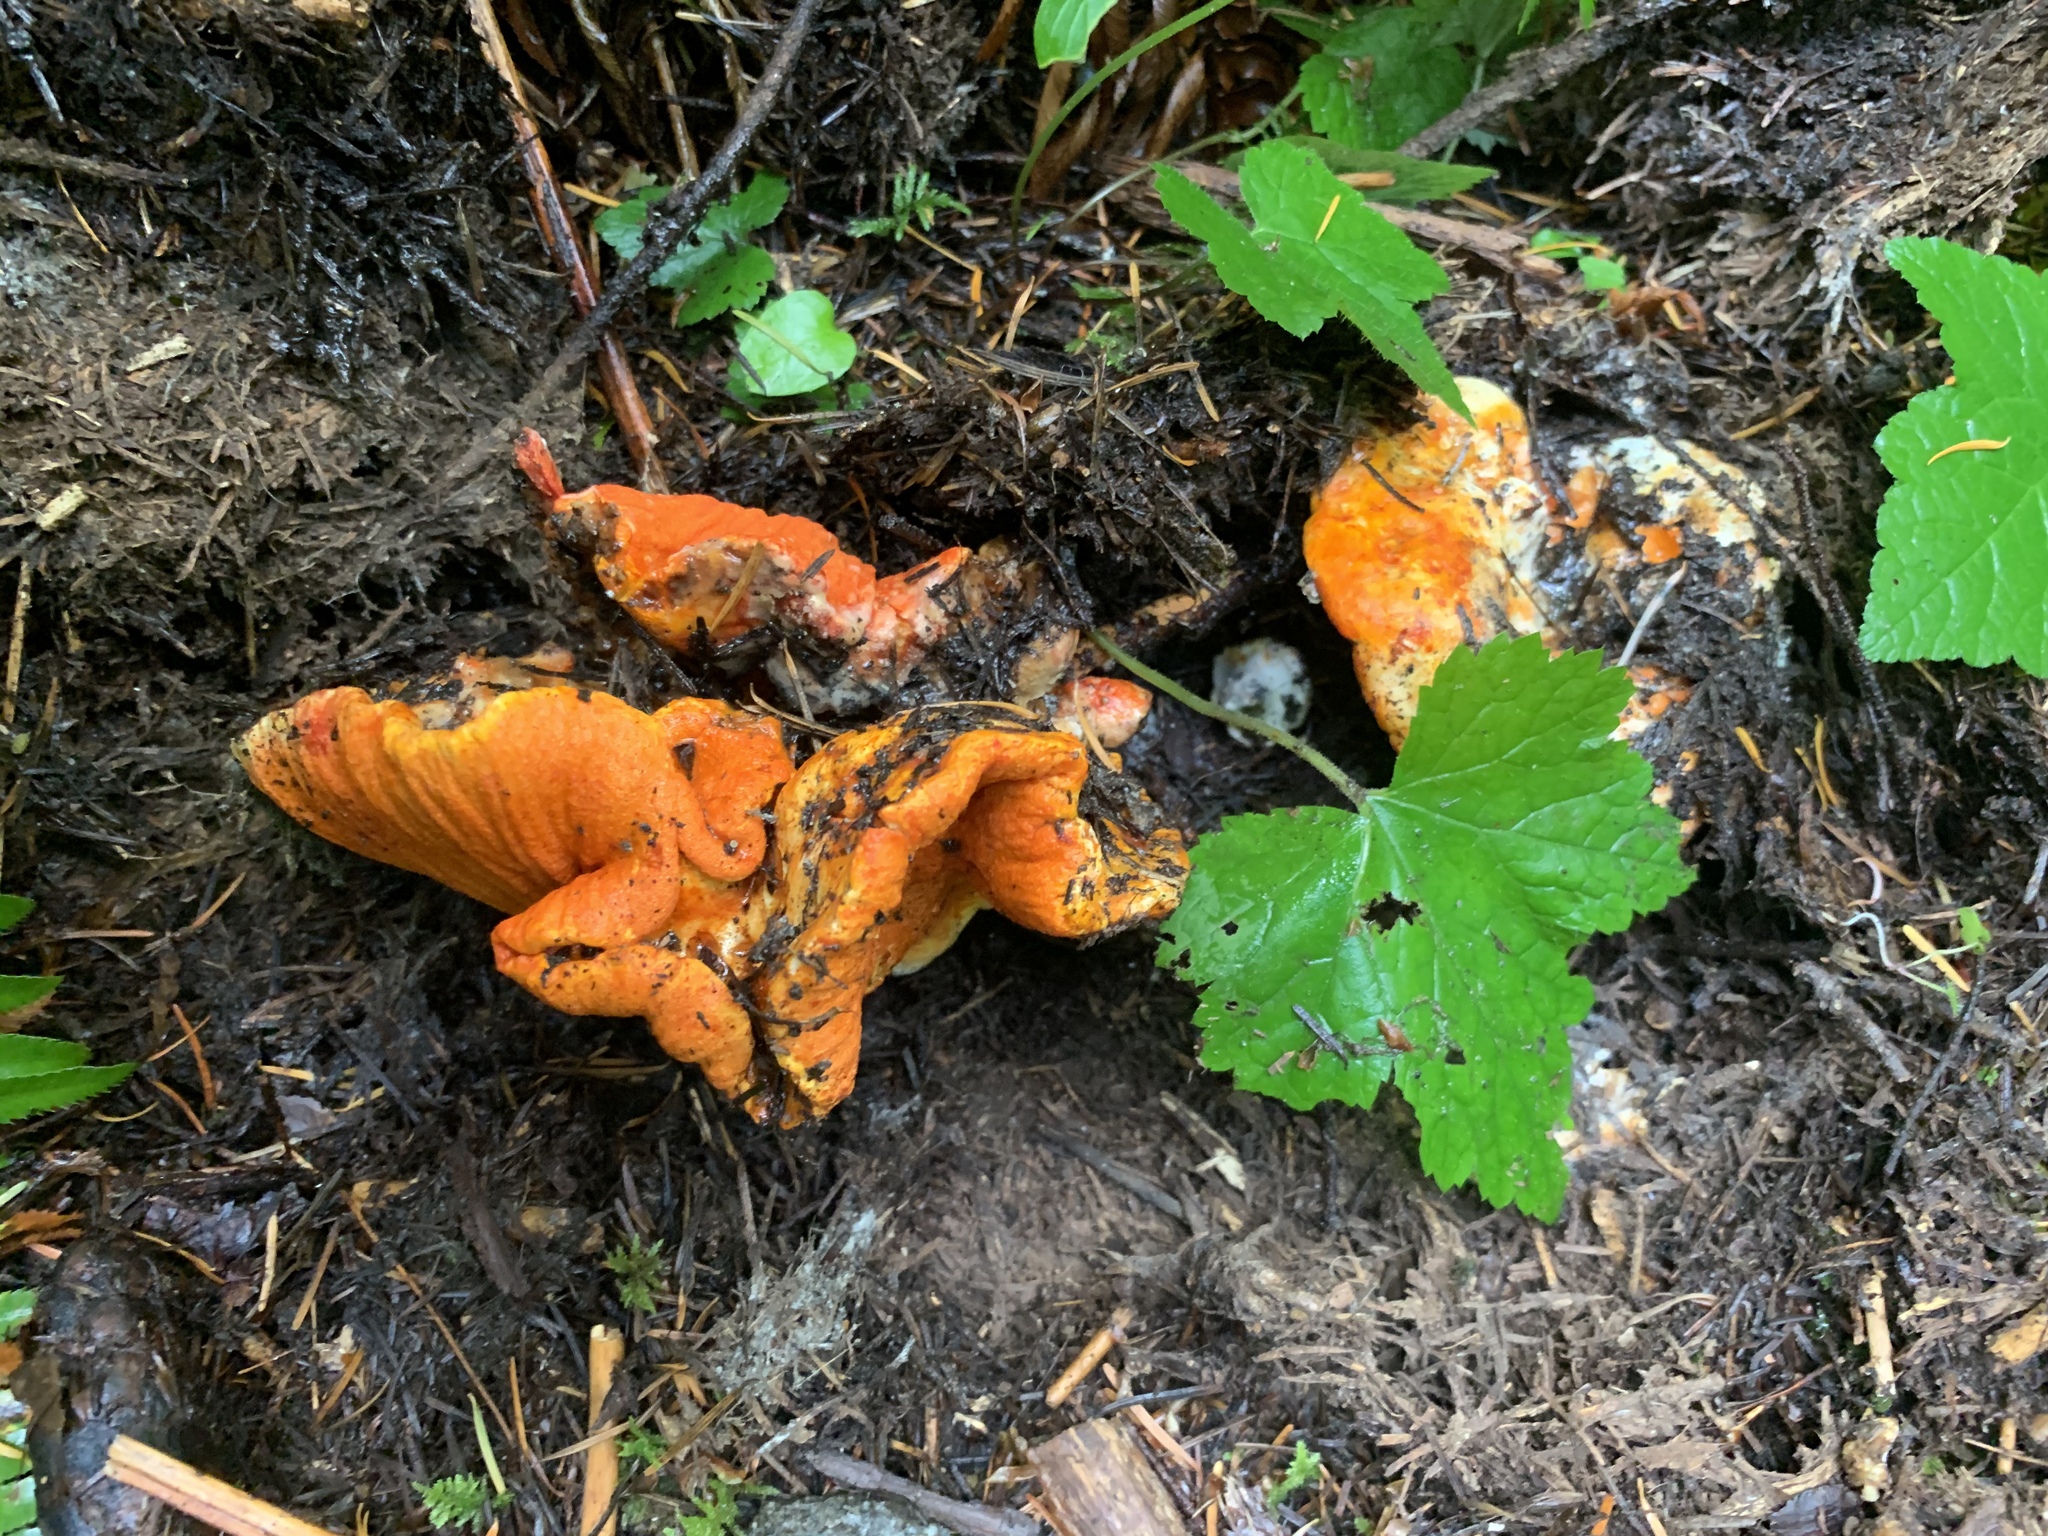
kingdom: Fungi
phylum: Ascomycota
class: Sordariomycetes
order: Hypocreales
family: Hypocreaceae
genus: Hypomyces
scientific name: Hypomyces lactifluorum
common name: Lobster mushroom
